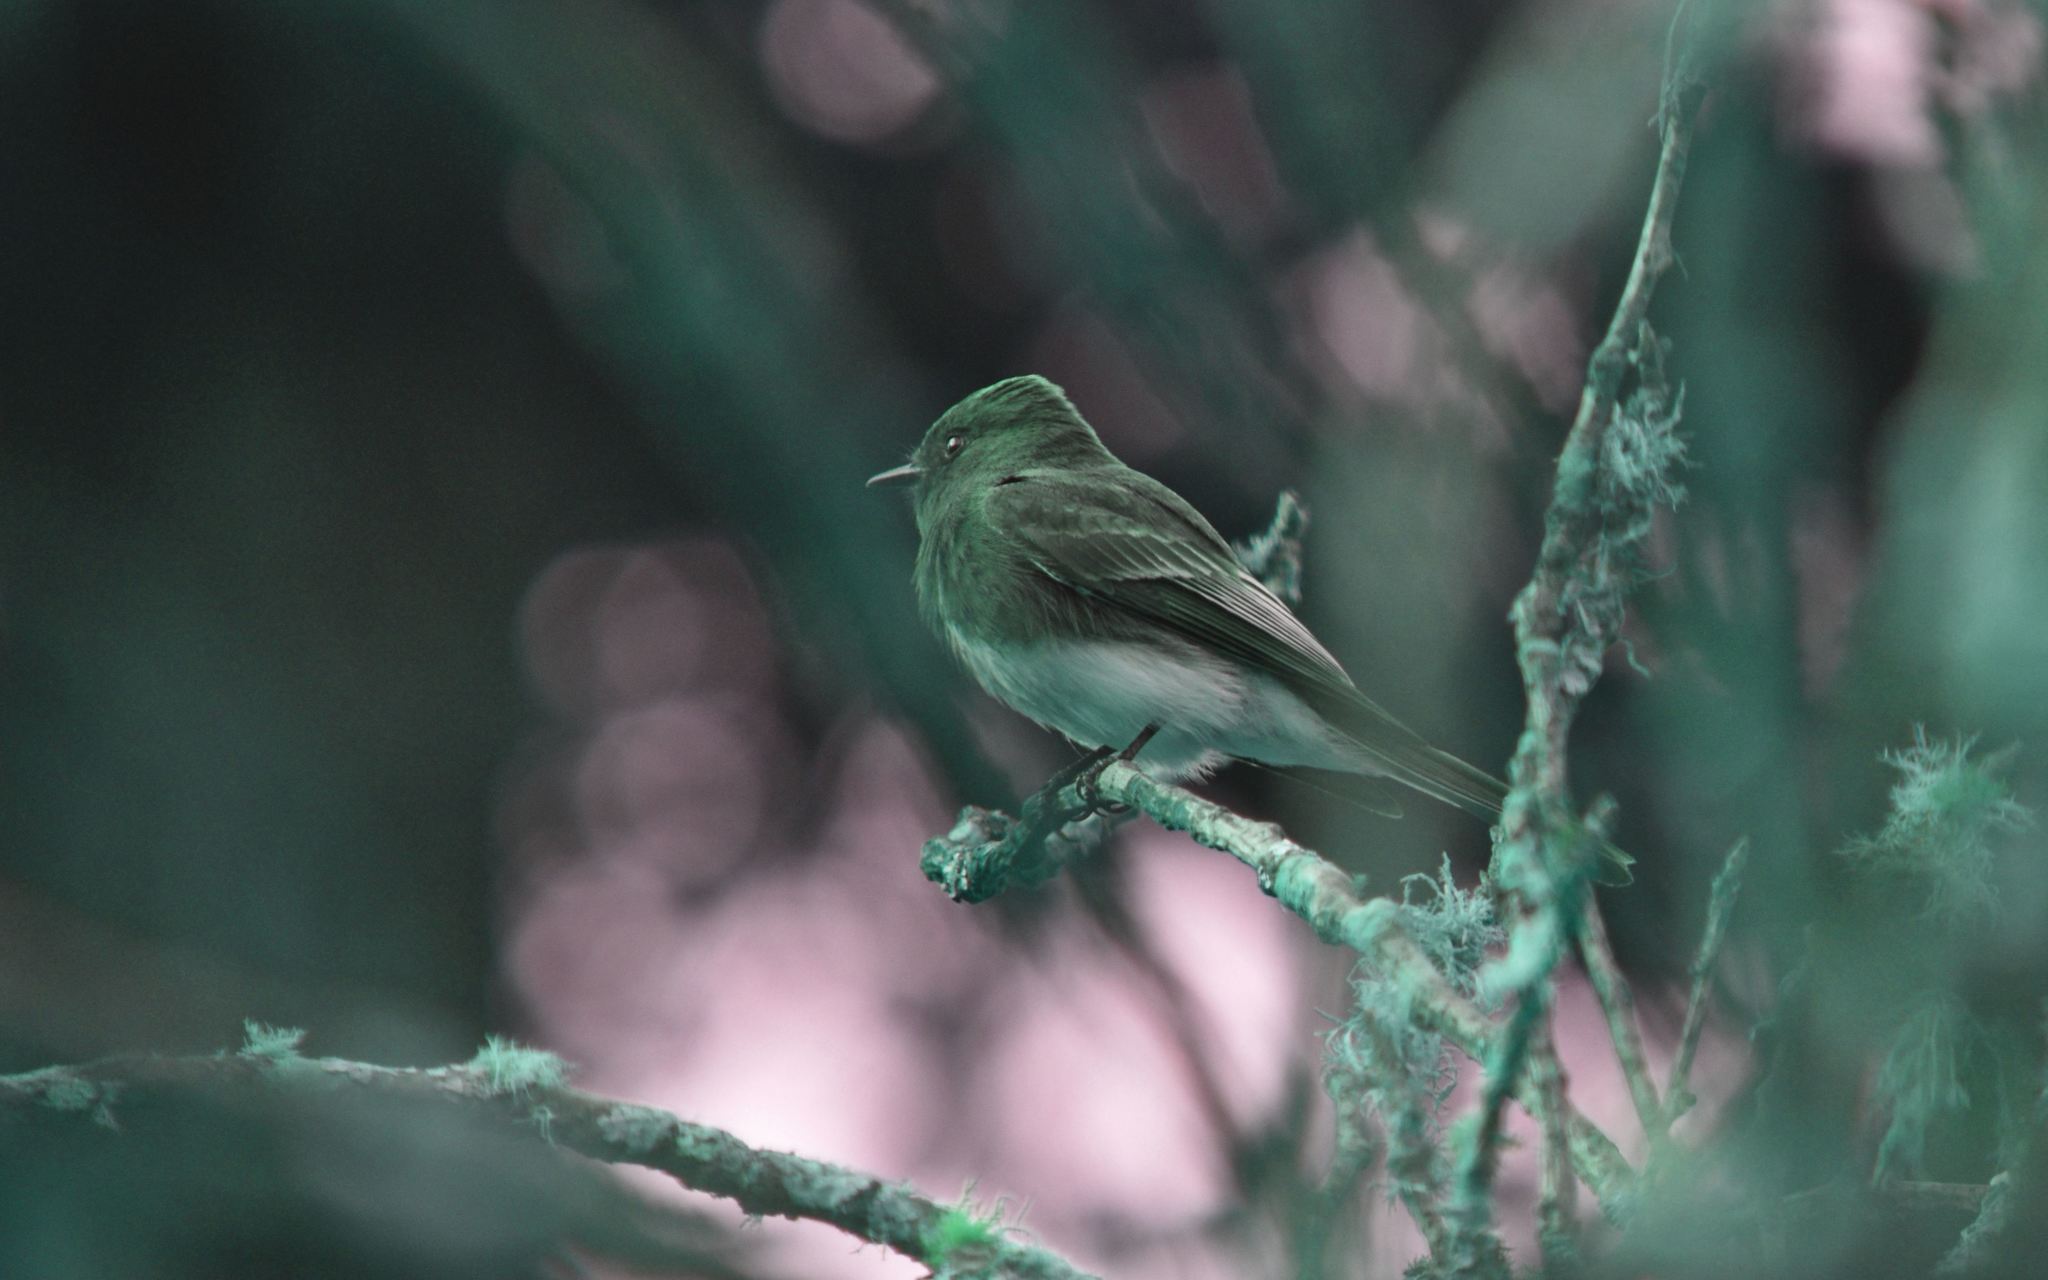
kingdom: Animalia
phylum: Chordata
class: Aves
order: Passeriformes
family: Tyrannidae
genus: Sayornis
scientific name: Sayornis nigricans
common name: Black phoebe
